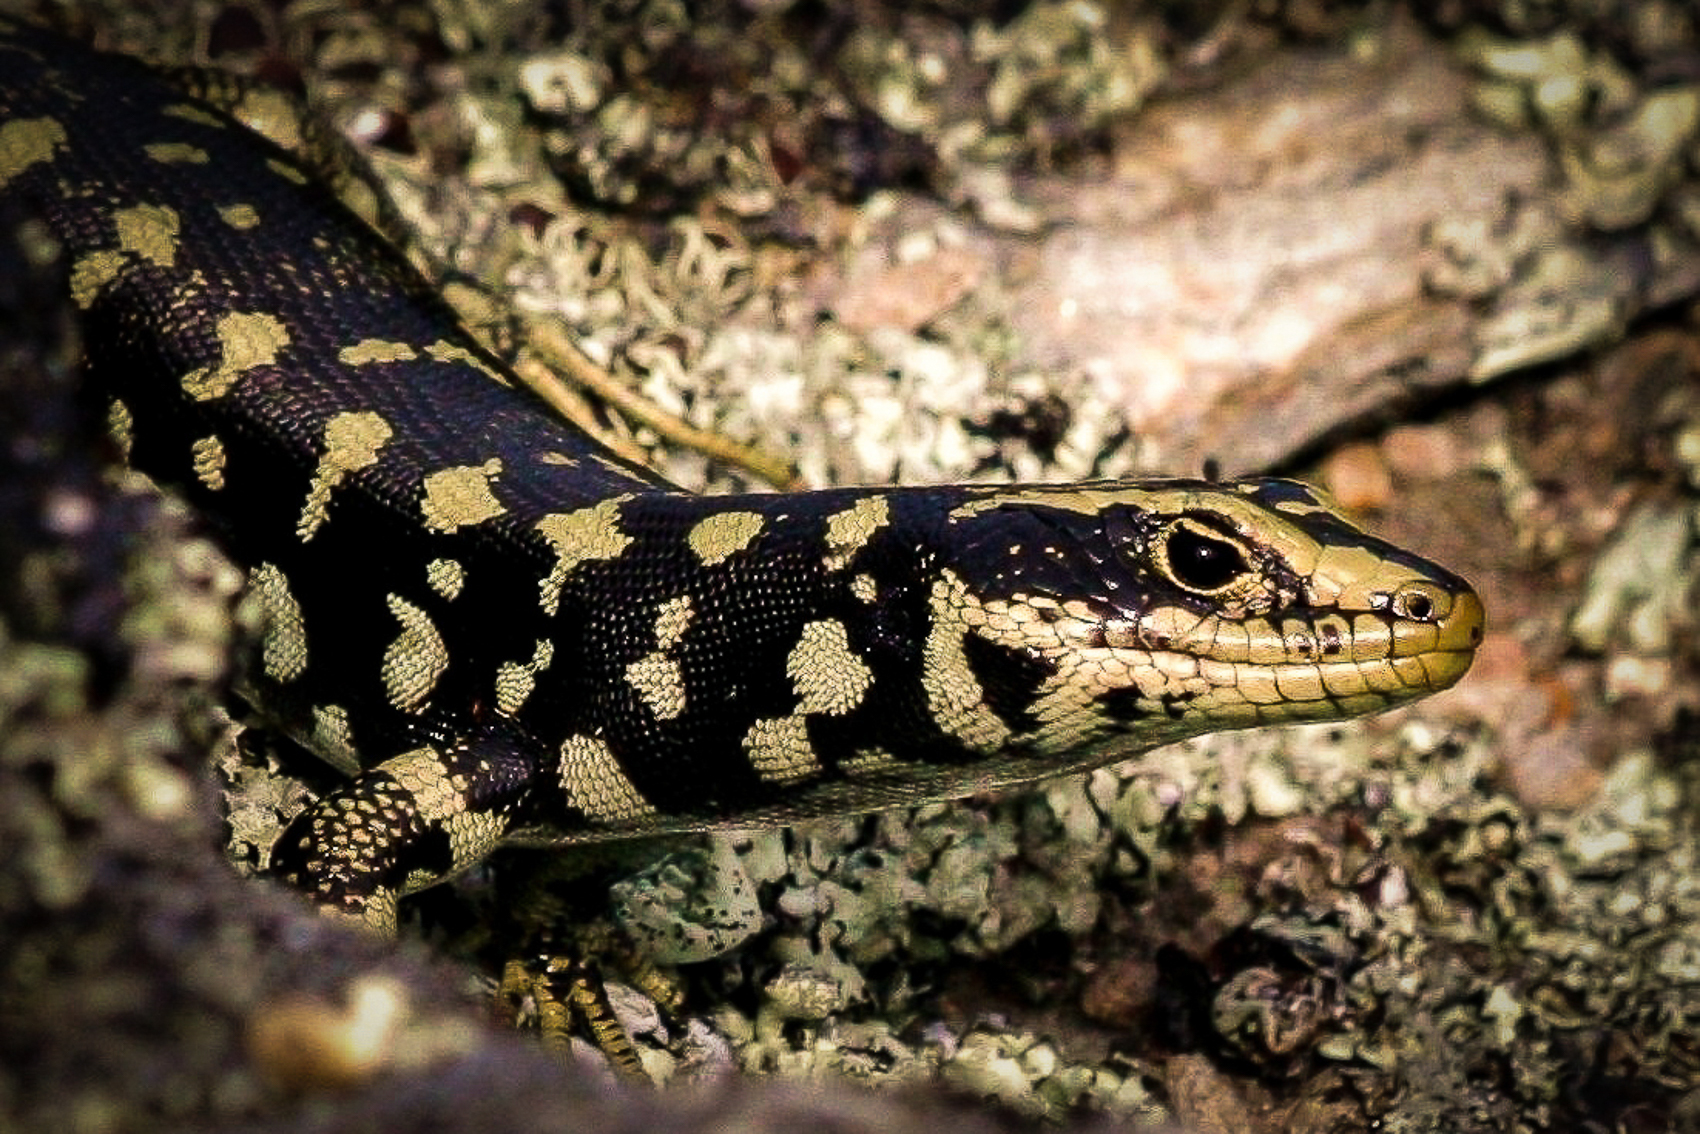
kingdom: Animalia
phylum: Chordata
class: Squamata
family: Scincidae
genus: Oligosoma
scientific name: Oligosoma otagense
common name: Otago skink
